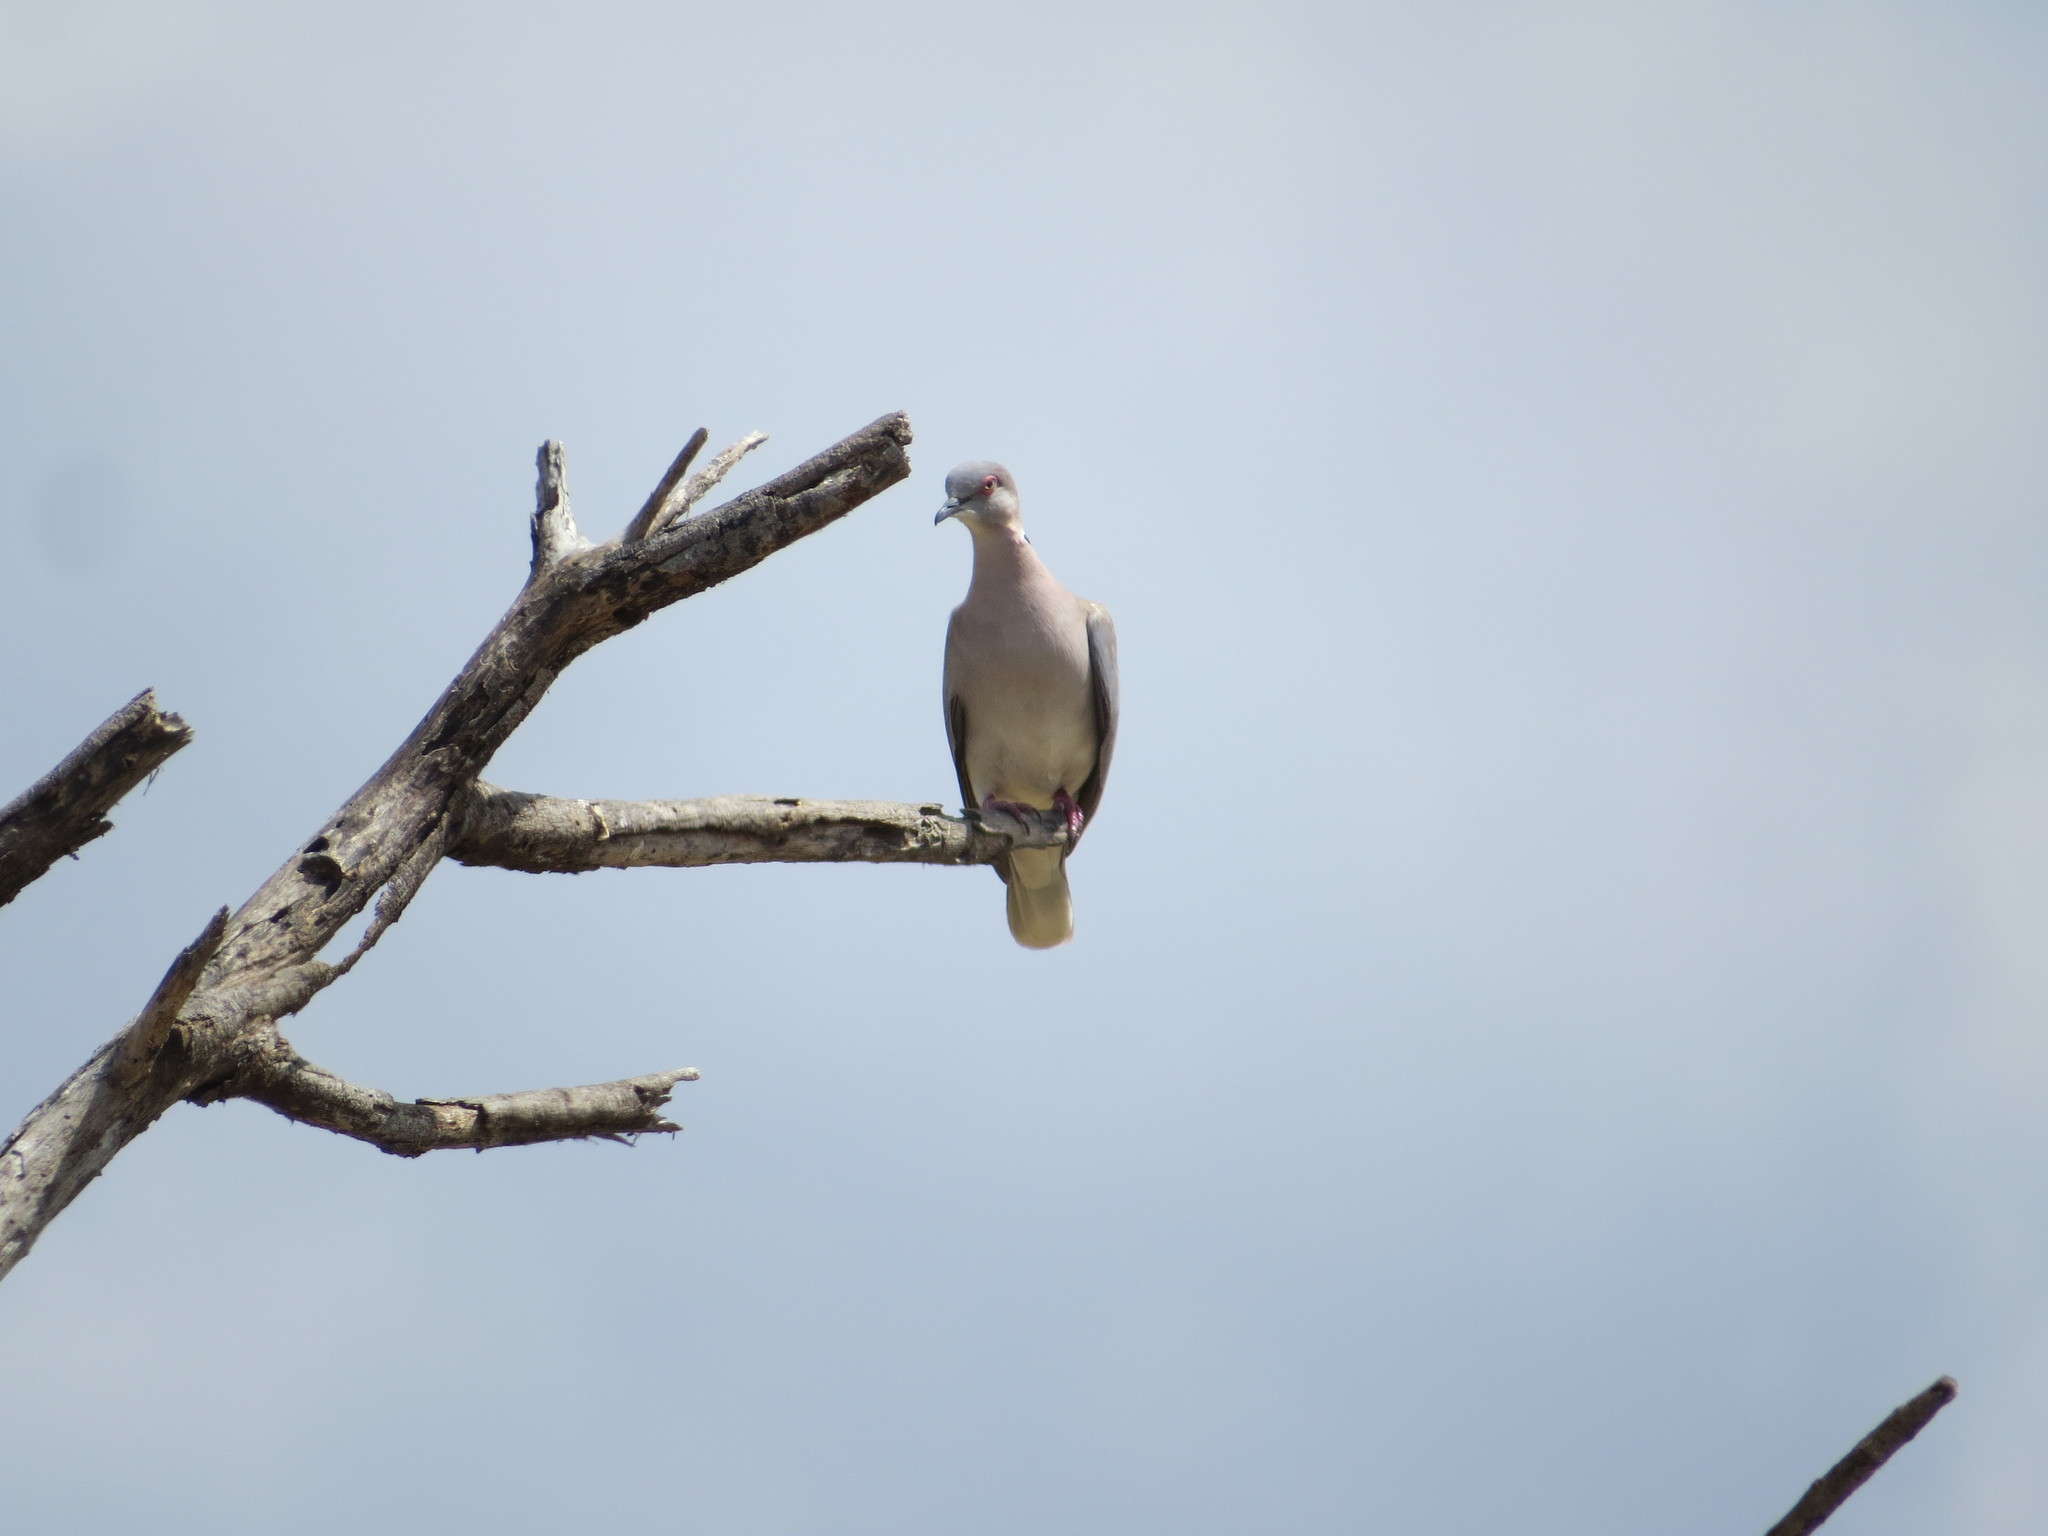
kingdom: Animalia
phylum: Chordata
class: Aves
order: Columbiformes
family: Columbidae
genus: Streptopelia
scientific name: Streptopelia decipiens
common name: Mourning collared dove
